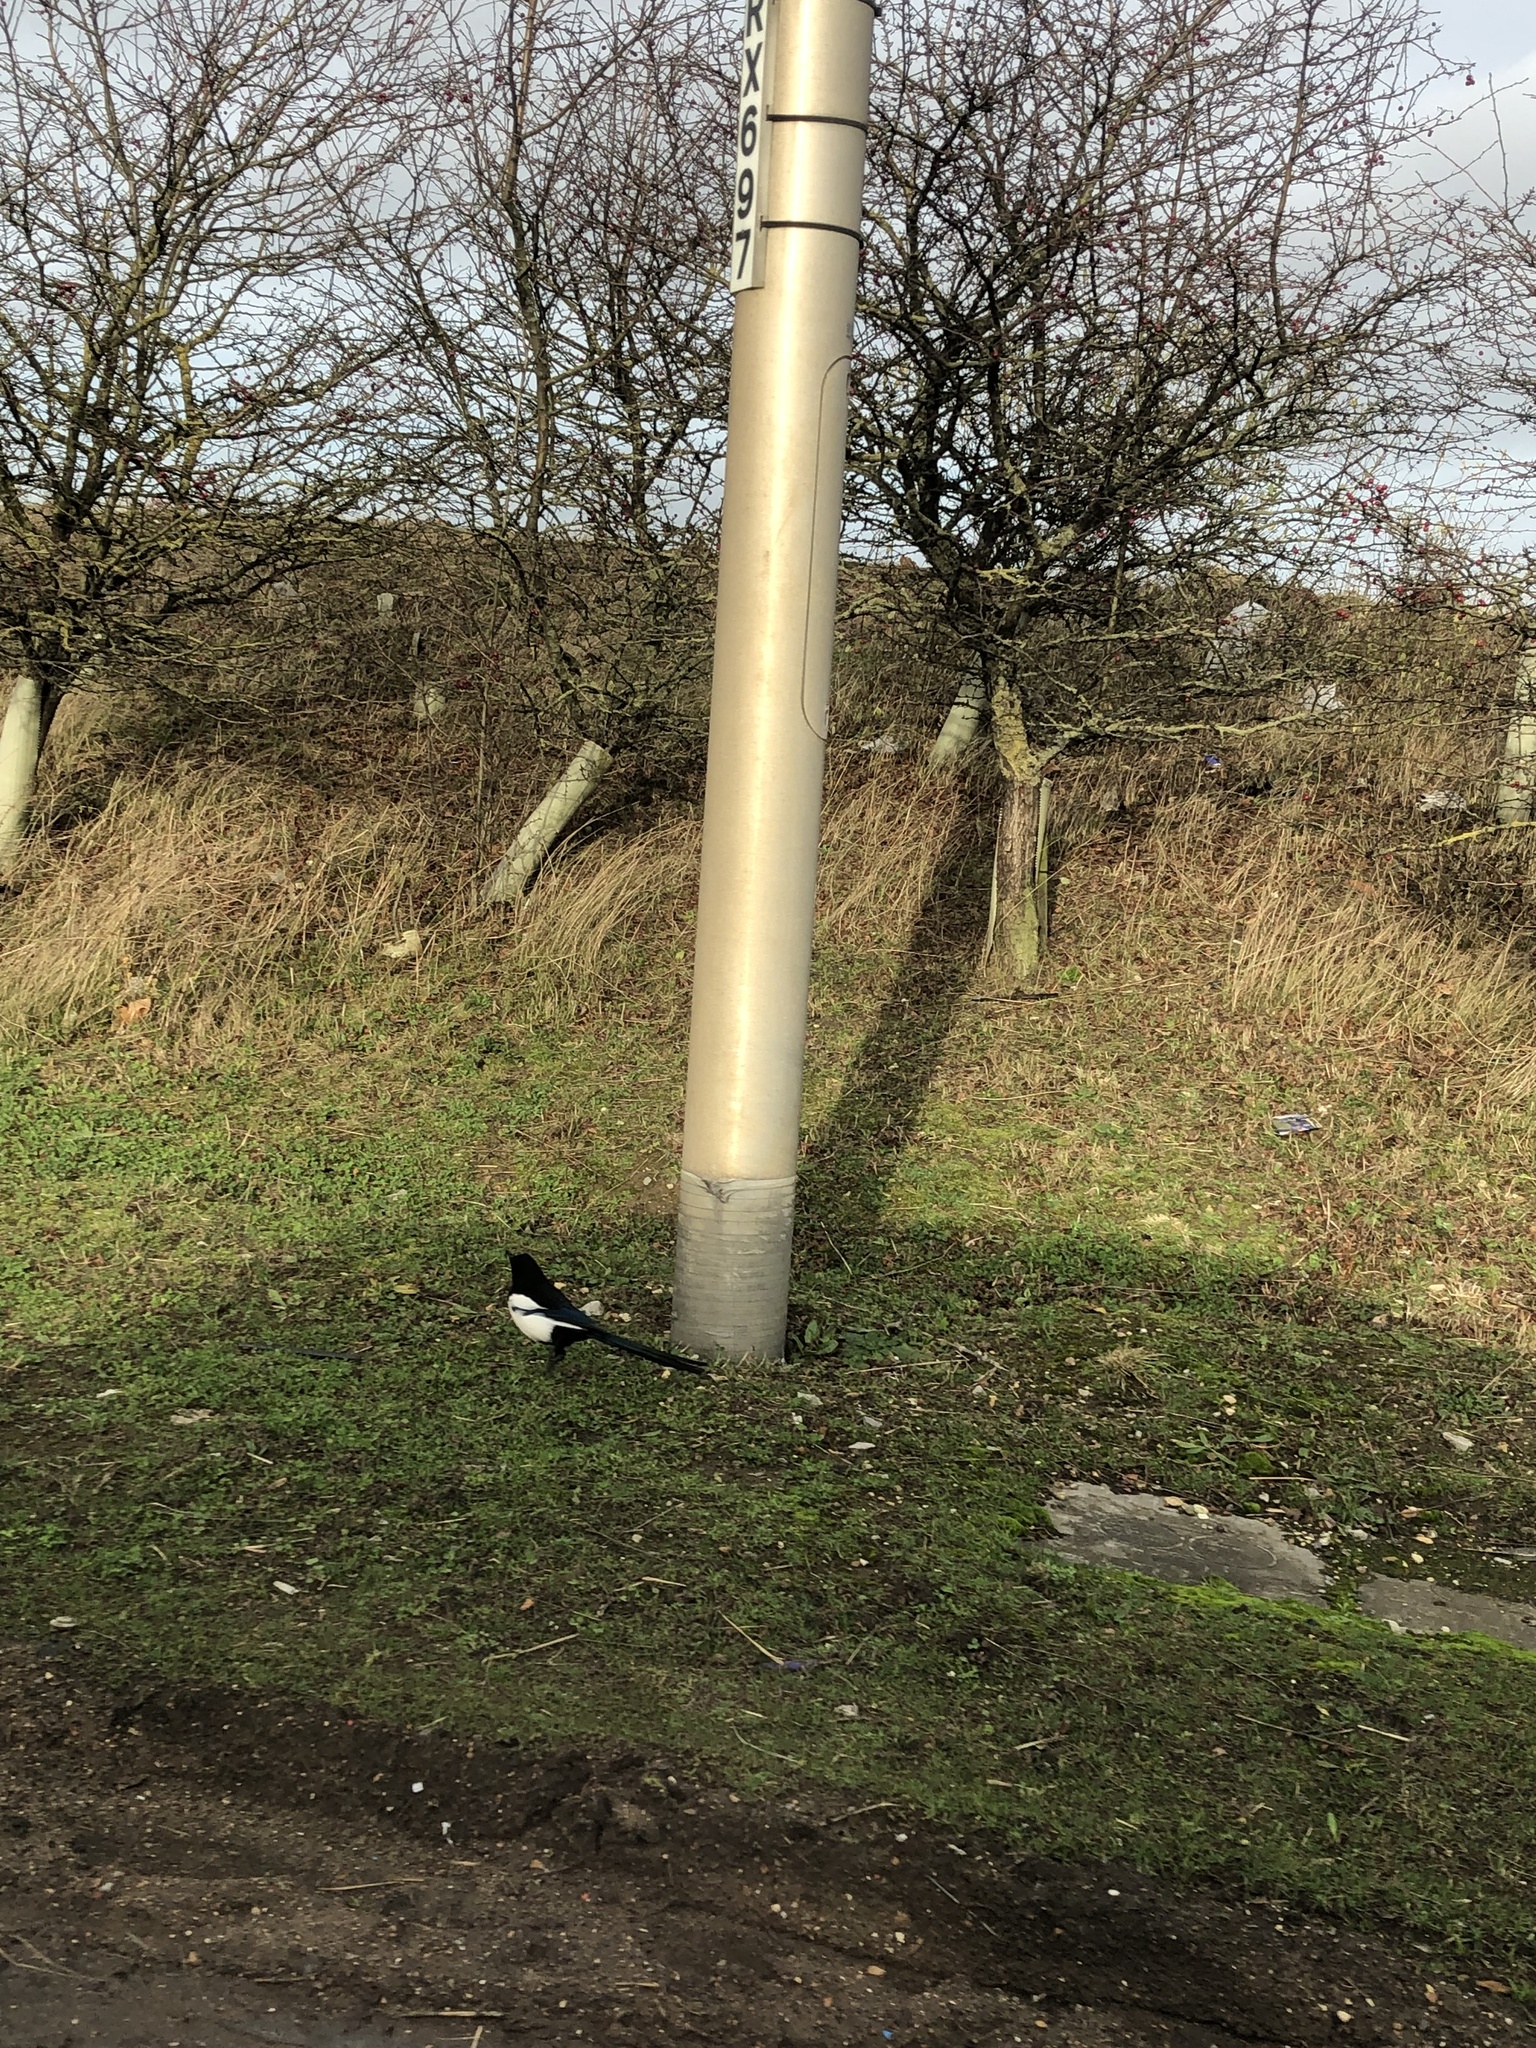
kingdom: Animalia
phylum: Chordata
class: Aves
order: Passeriformes
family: Corvidae
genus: Pica
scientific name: Pica pica
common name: Eurasian magpie
